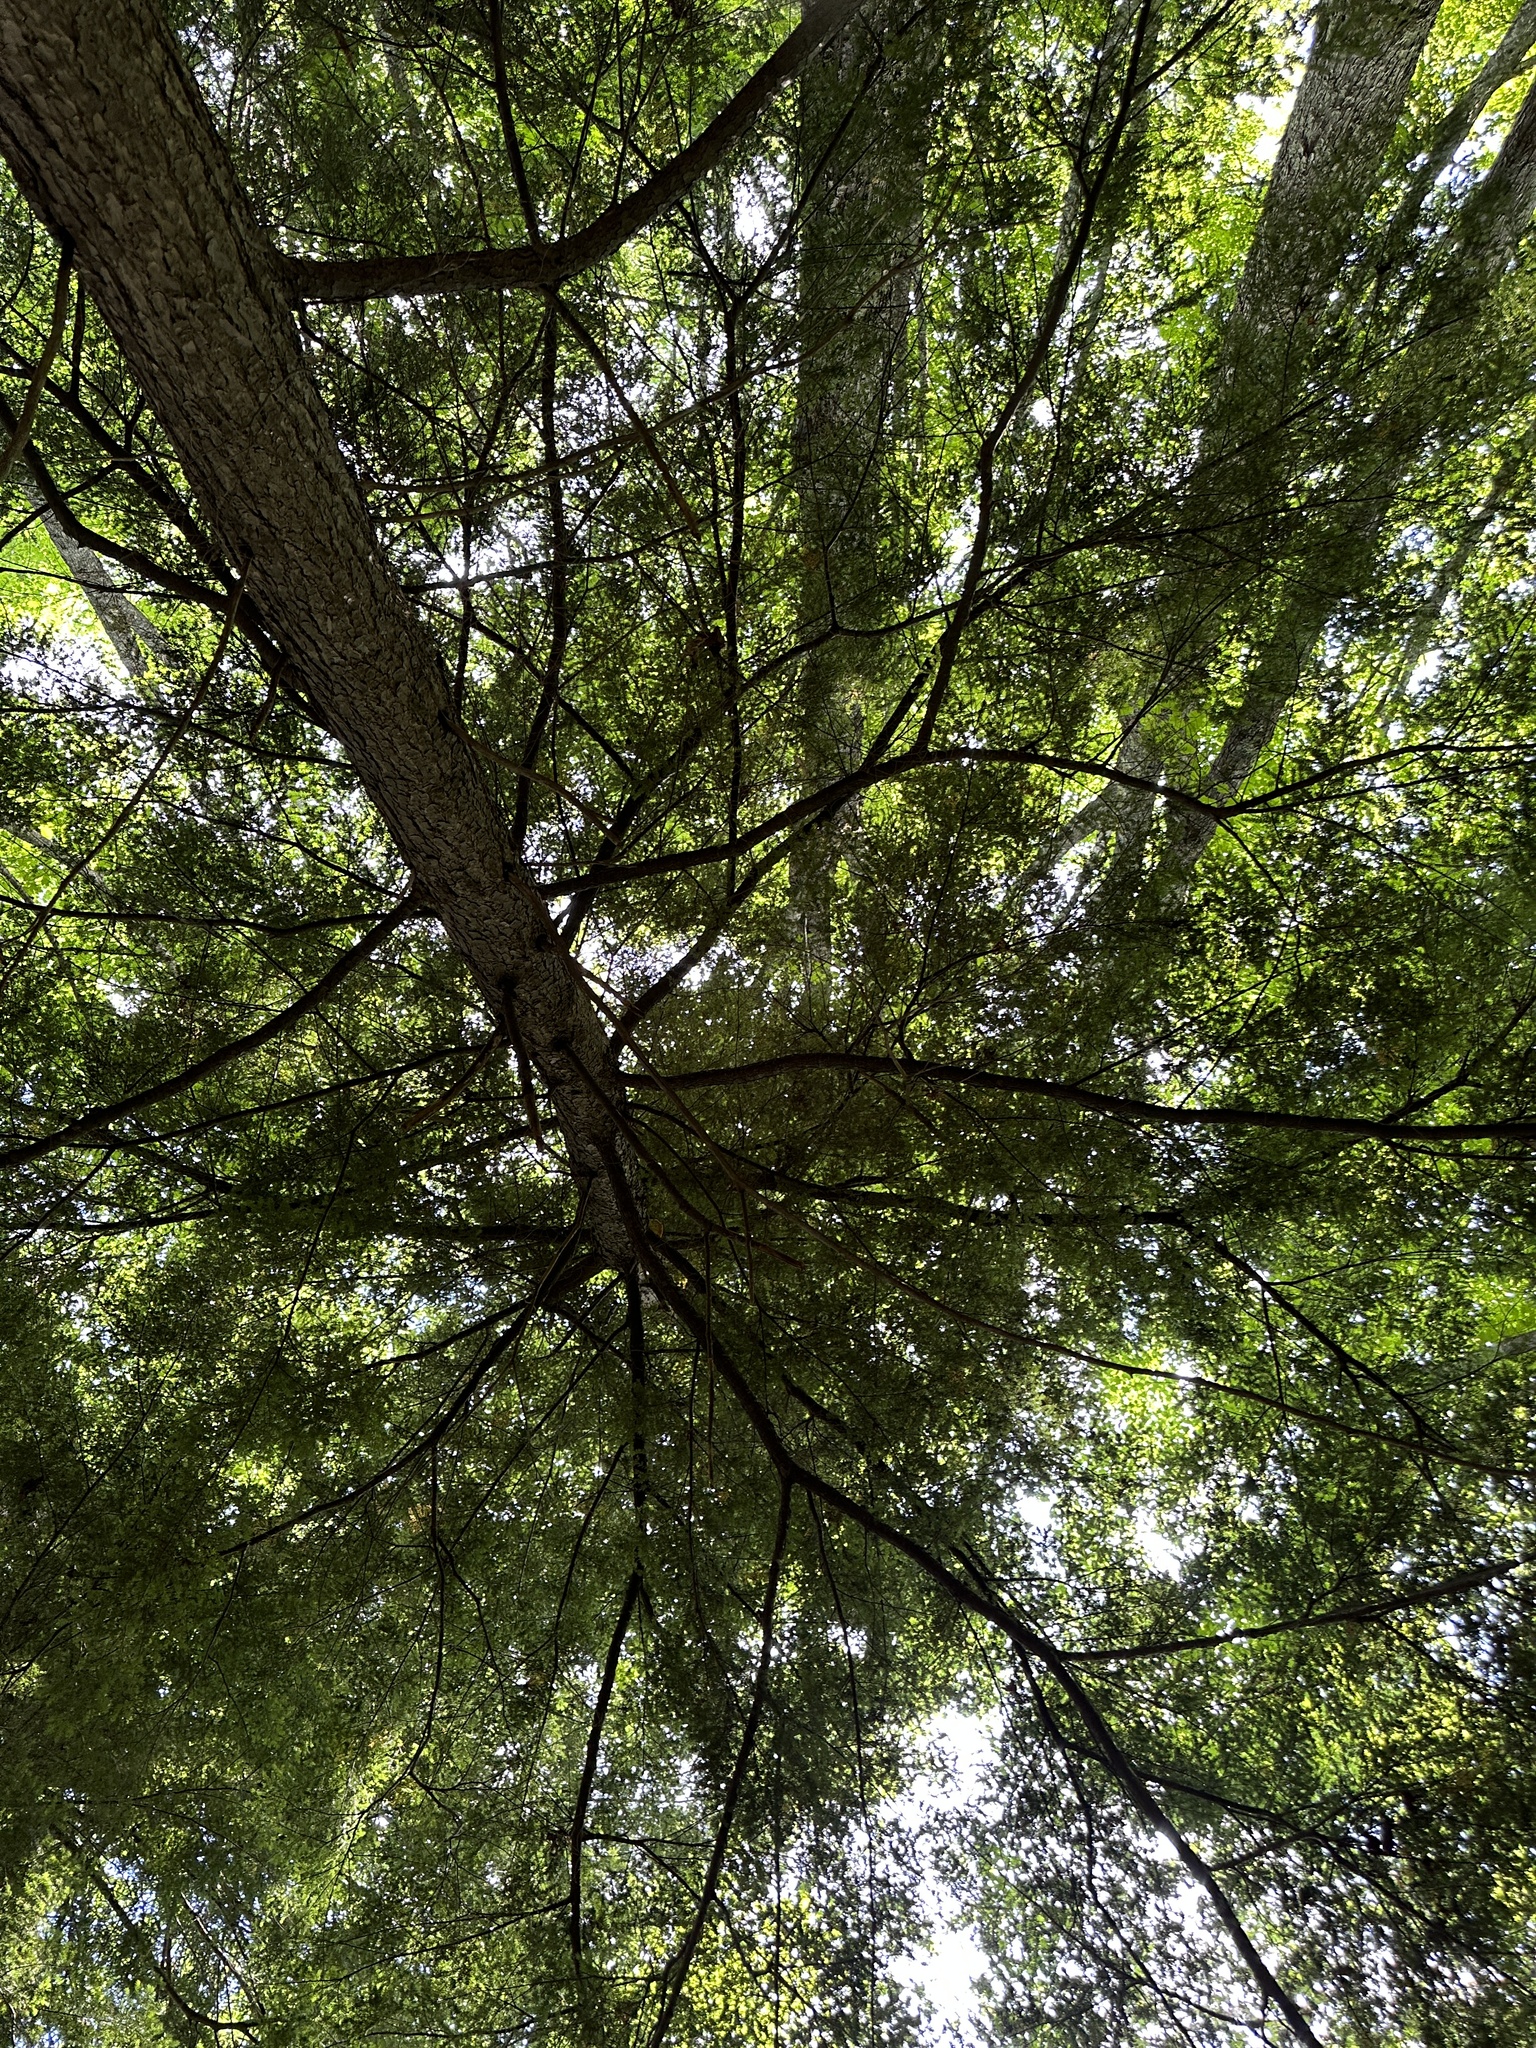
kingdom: Plantae
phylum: Tracheophyta
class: Pinopsida
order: Pinales
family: Pinaceae
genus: Tsuga
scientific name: Tsuga canadensis
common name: Eastern hemlock
